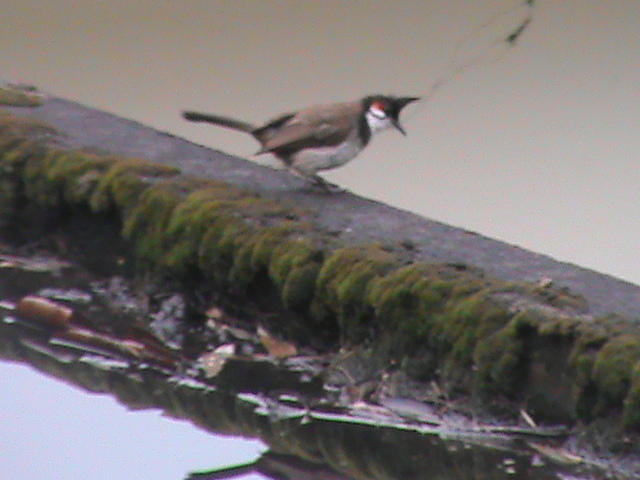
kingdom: Animalia
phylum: Chordata
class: Aves
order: Passeriformes
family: Pycnonotidae
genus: Pycnonotus
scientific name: Pycnonotus jocosus
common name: Red-whiskered bulbul
